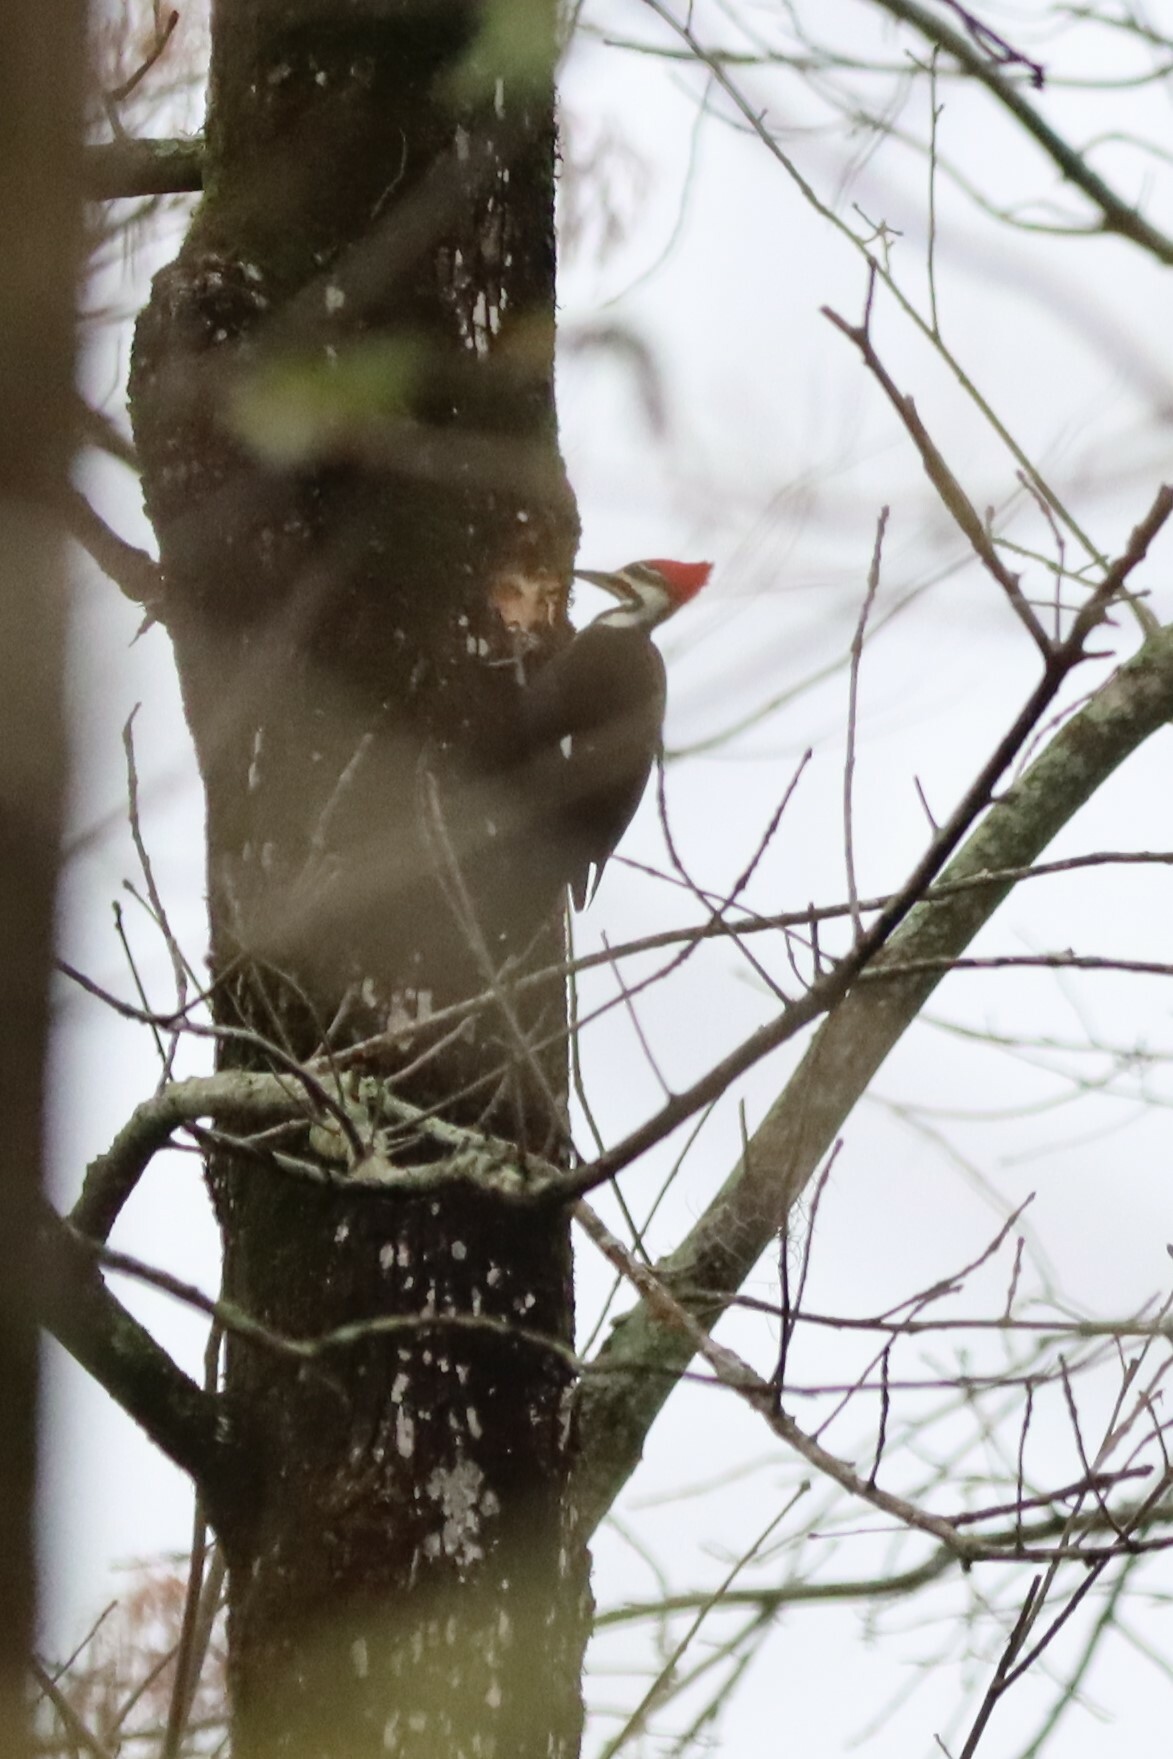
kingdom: Animalia
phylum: Chordata
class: Aves
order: Piciformes
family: Picidae
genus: Dryocopus
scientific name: Dryocopus pileatus
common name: Pileated woodpecker
